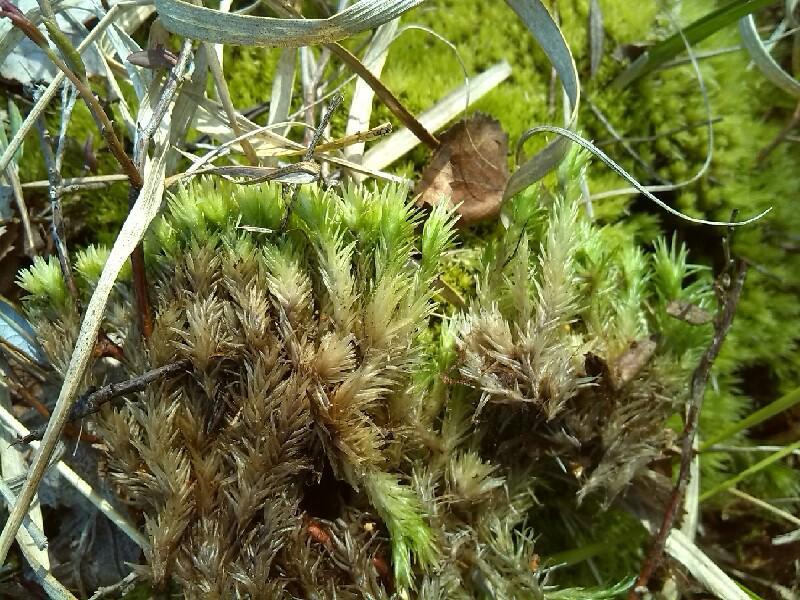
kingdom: Plantae
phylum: Bryophyta
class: Bryopsida
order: Dicranales
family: Leucobryaceae
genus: Leucobryum
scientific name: Leucobryum glaucum
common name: Large white-moss
